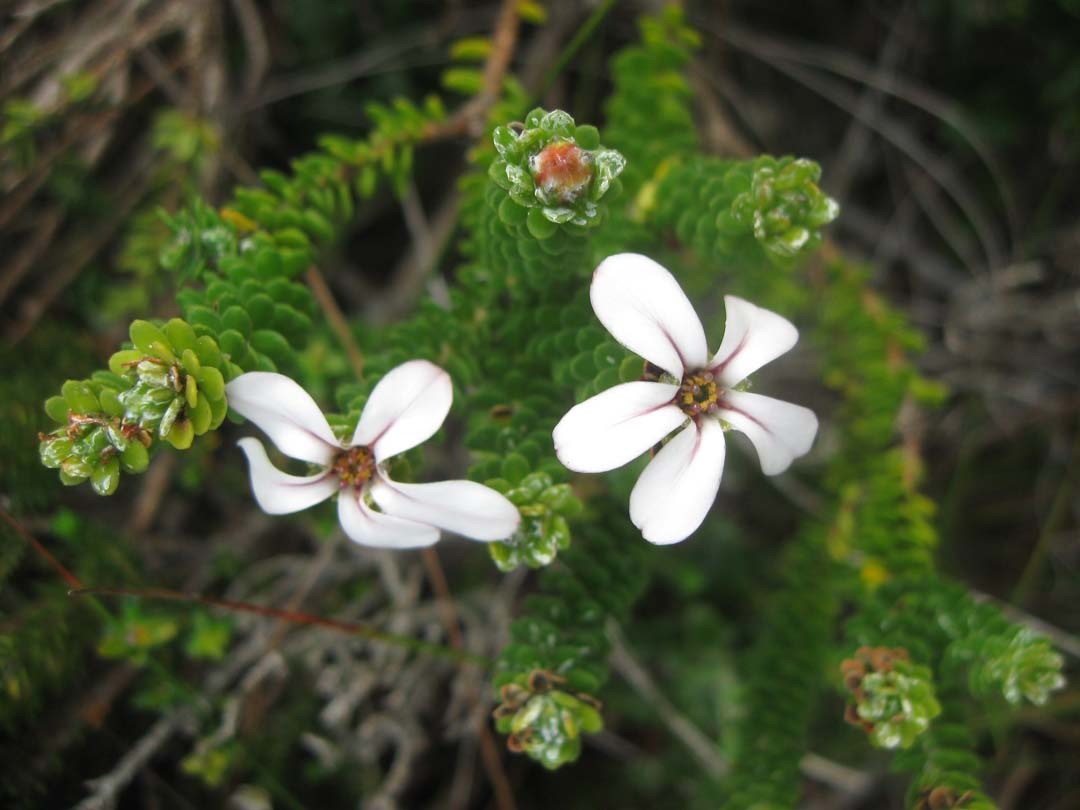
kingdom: Plantae
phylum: Tracheophyta
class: Magnoliopsida
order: Sapindales
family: Rutaceae
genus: Adenandra
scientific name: Adenandra obtusata
